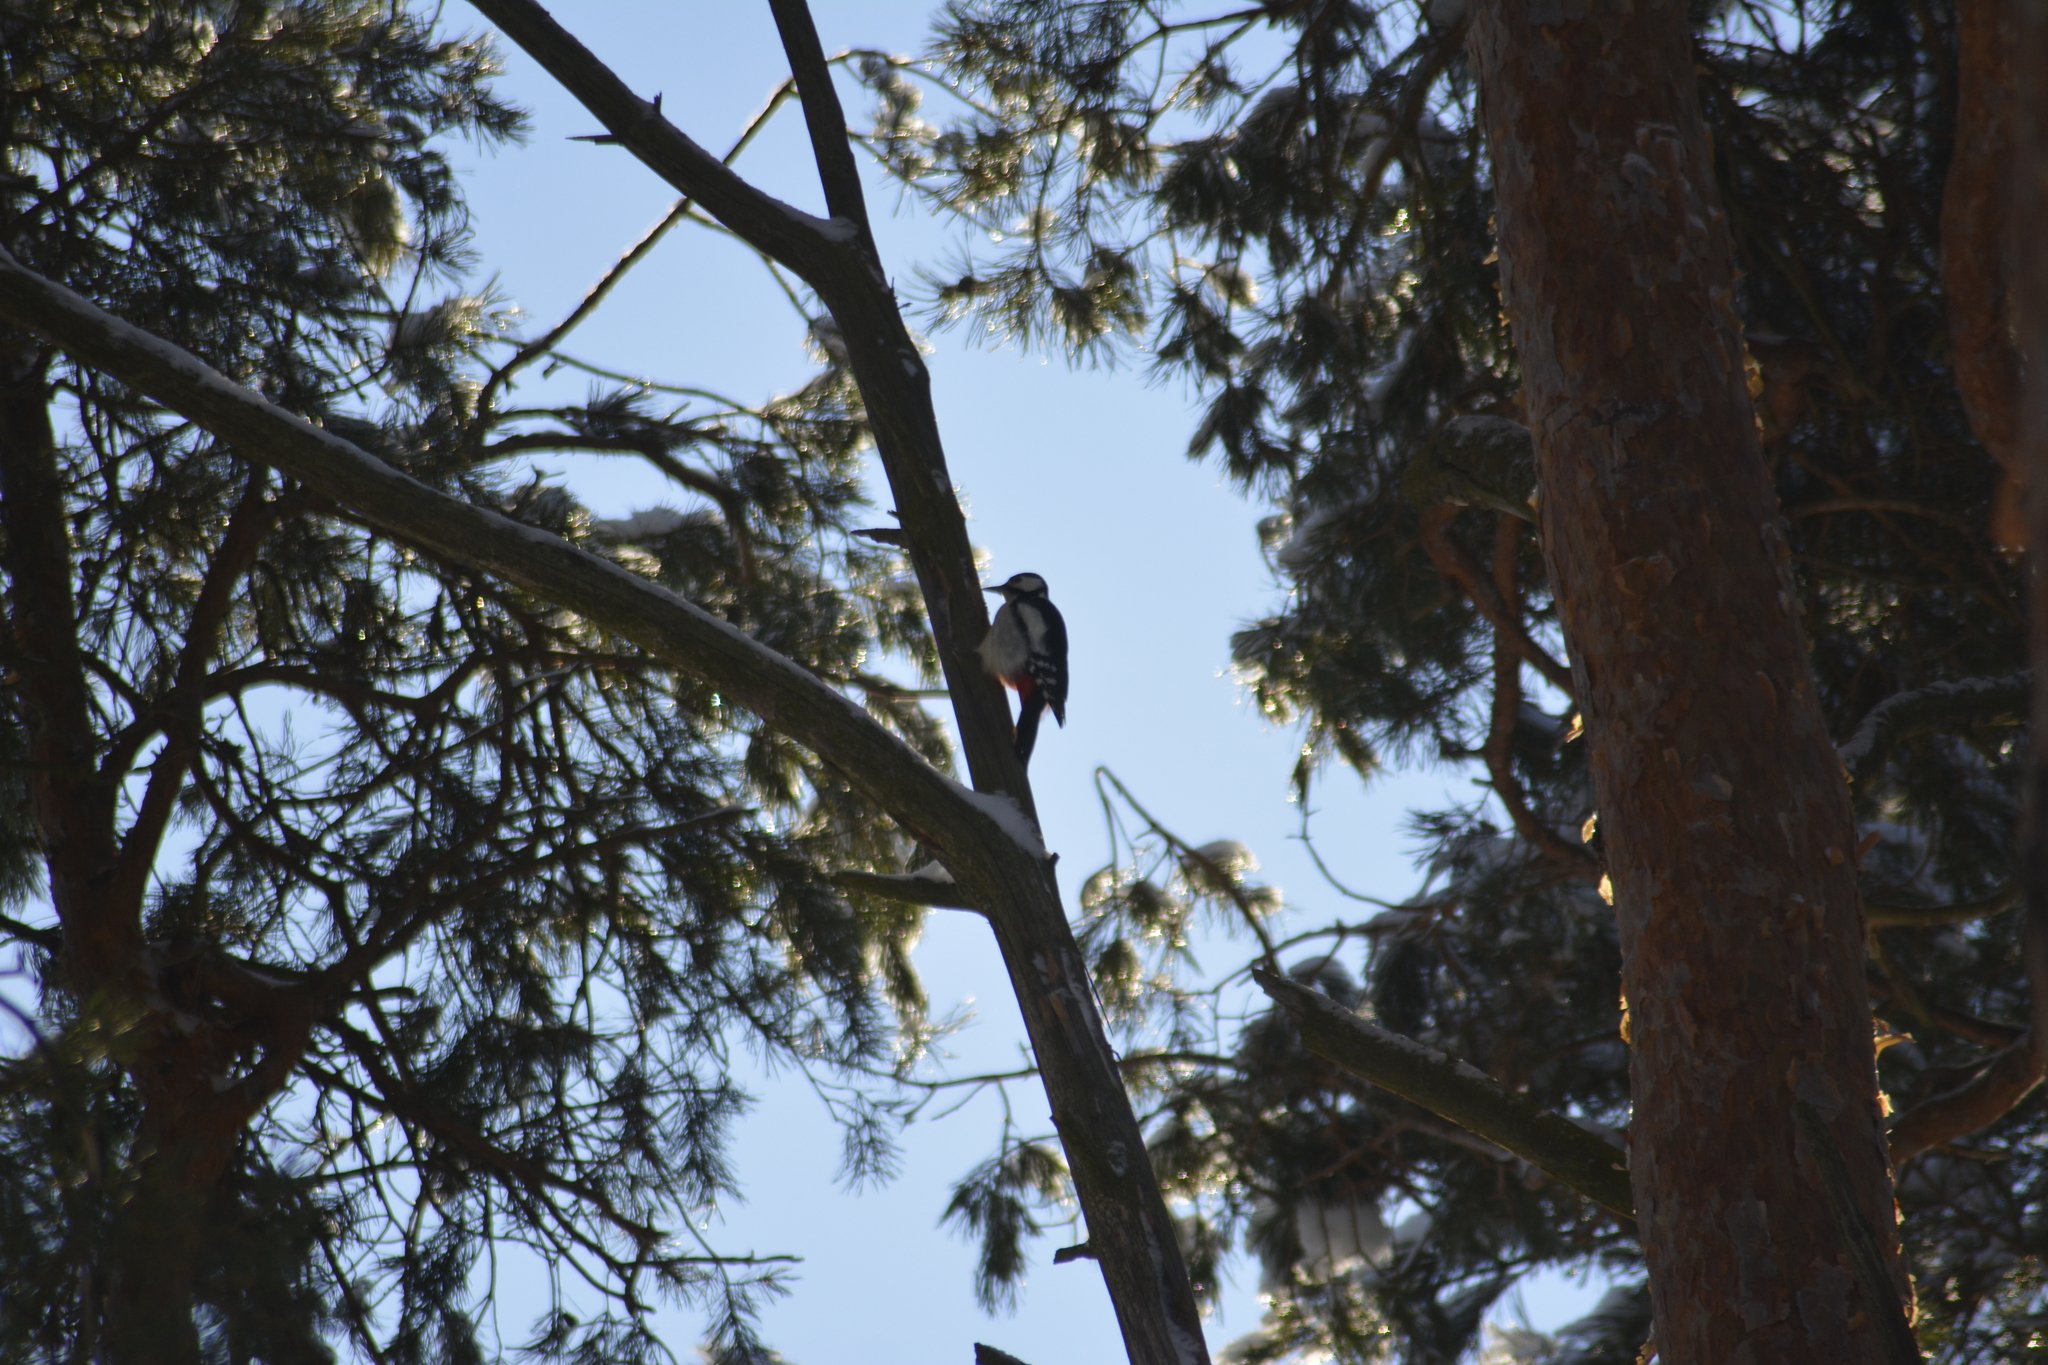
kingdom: Animalia
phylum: Chordata
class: Aves
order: Piciformes
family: Picidae
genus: Dendrocopos
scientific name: Dendrocopos major
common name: Great spotted woodpecker
